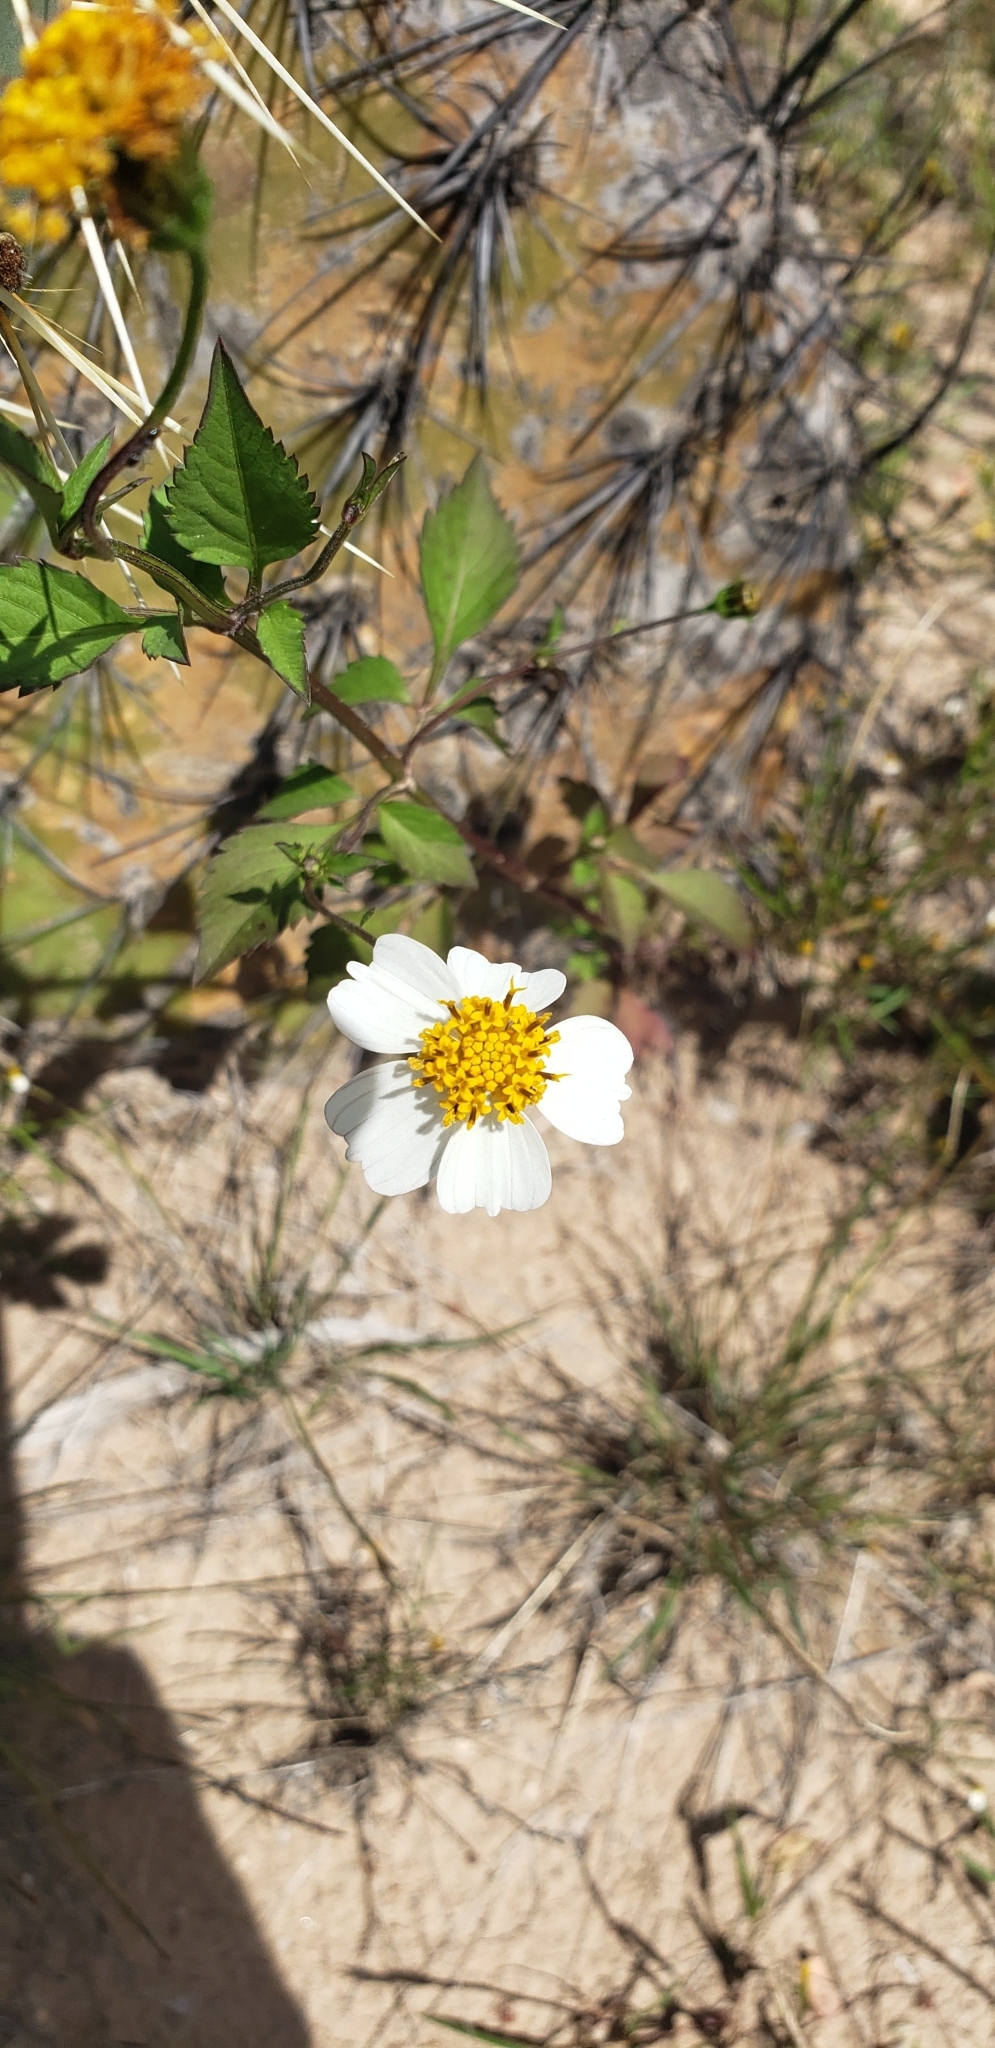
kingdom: Plantae
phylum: Tracheophyta
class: Magnoliopsida
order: Asterales
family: Asteraceae
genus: Bidens
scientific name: Bidens odorata
